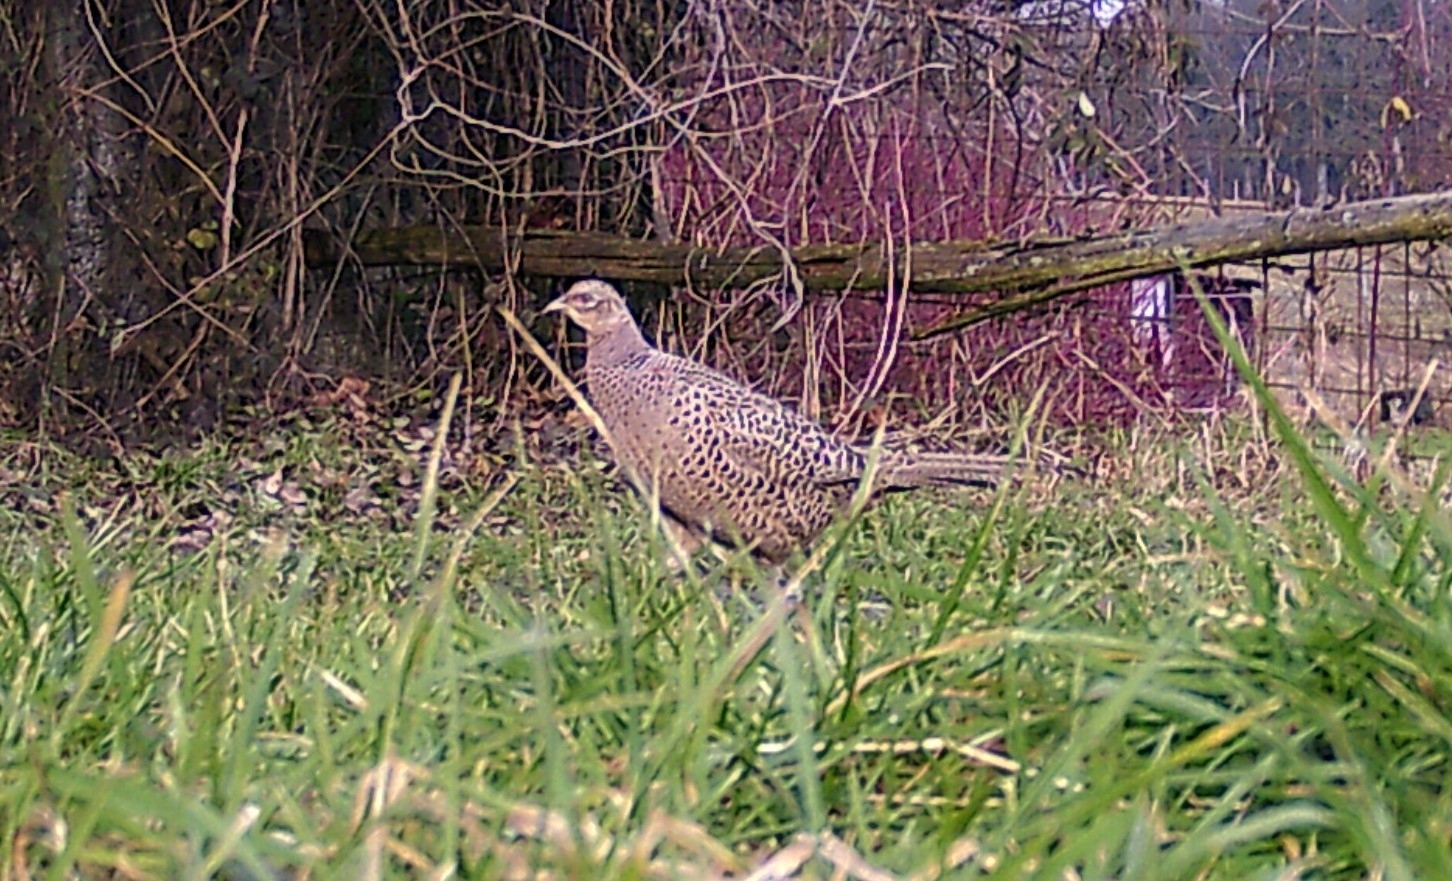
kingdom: Animalia
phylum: Chordata
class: Aves
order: Galliformes
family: Phasianidae
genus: Phasianus
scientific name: Phasianus colchicus
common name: Common pheasant
